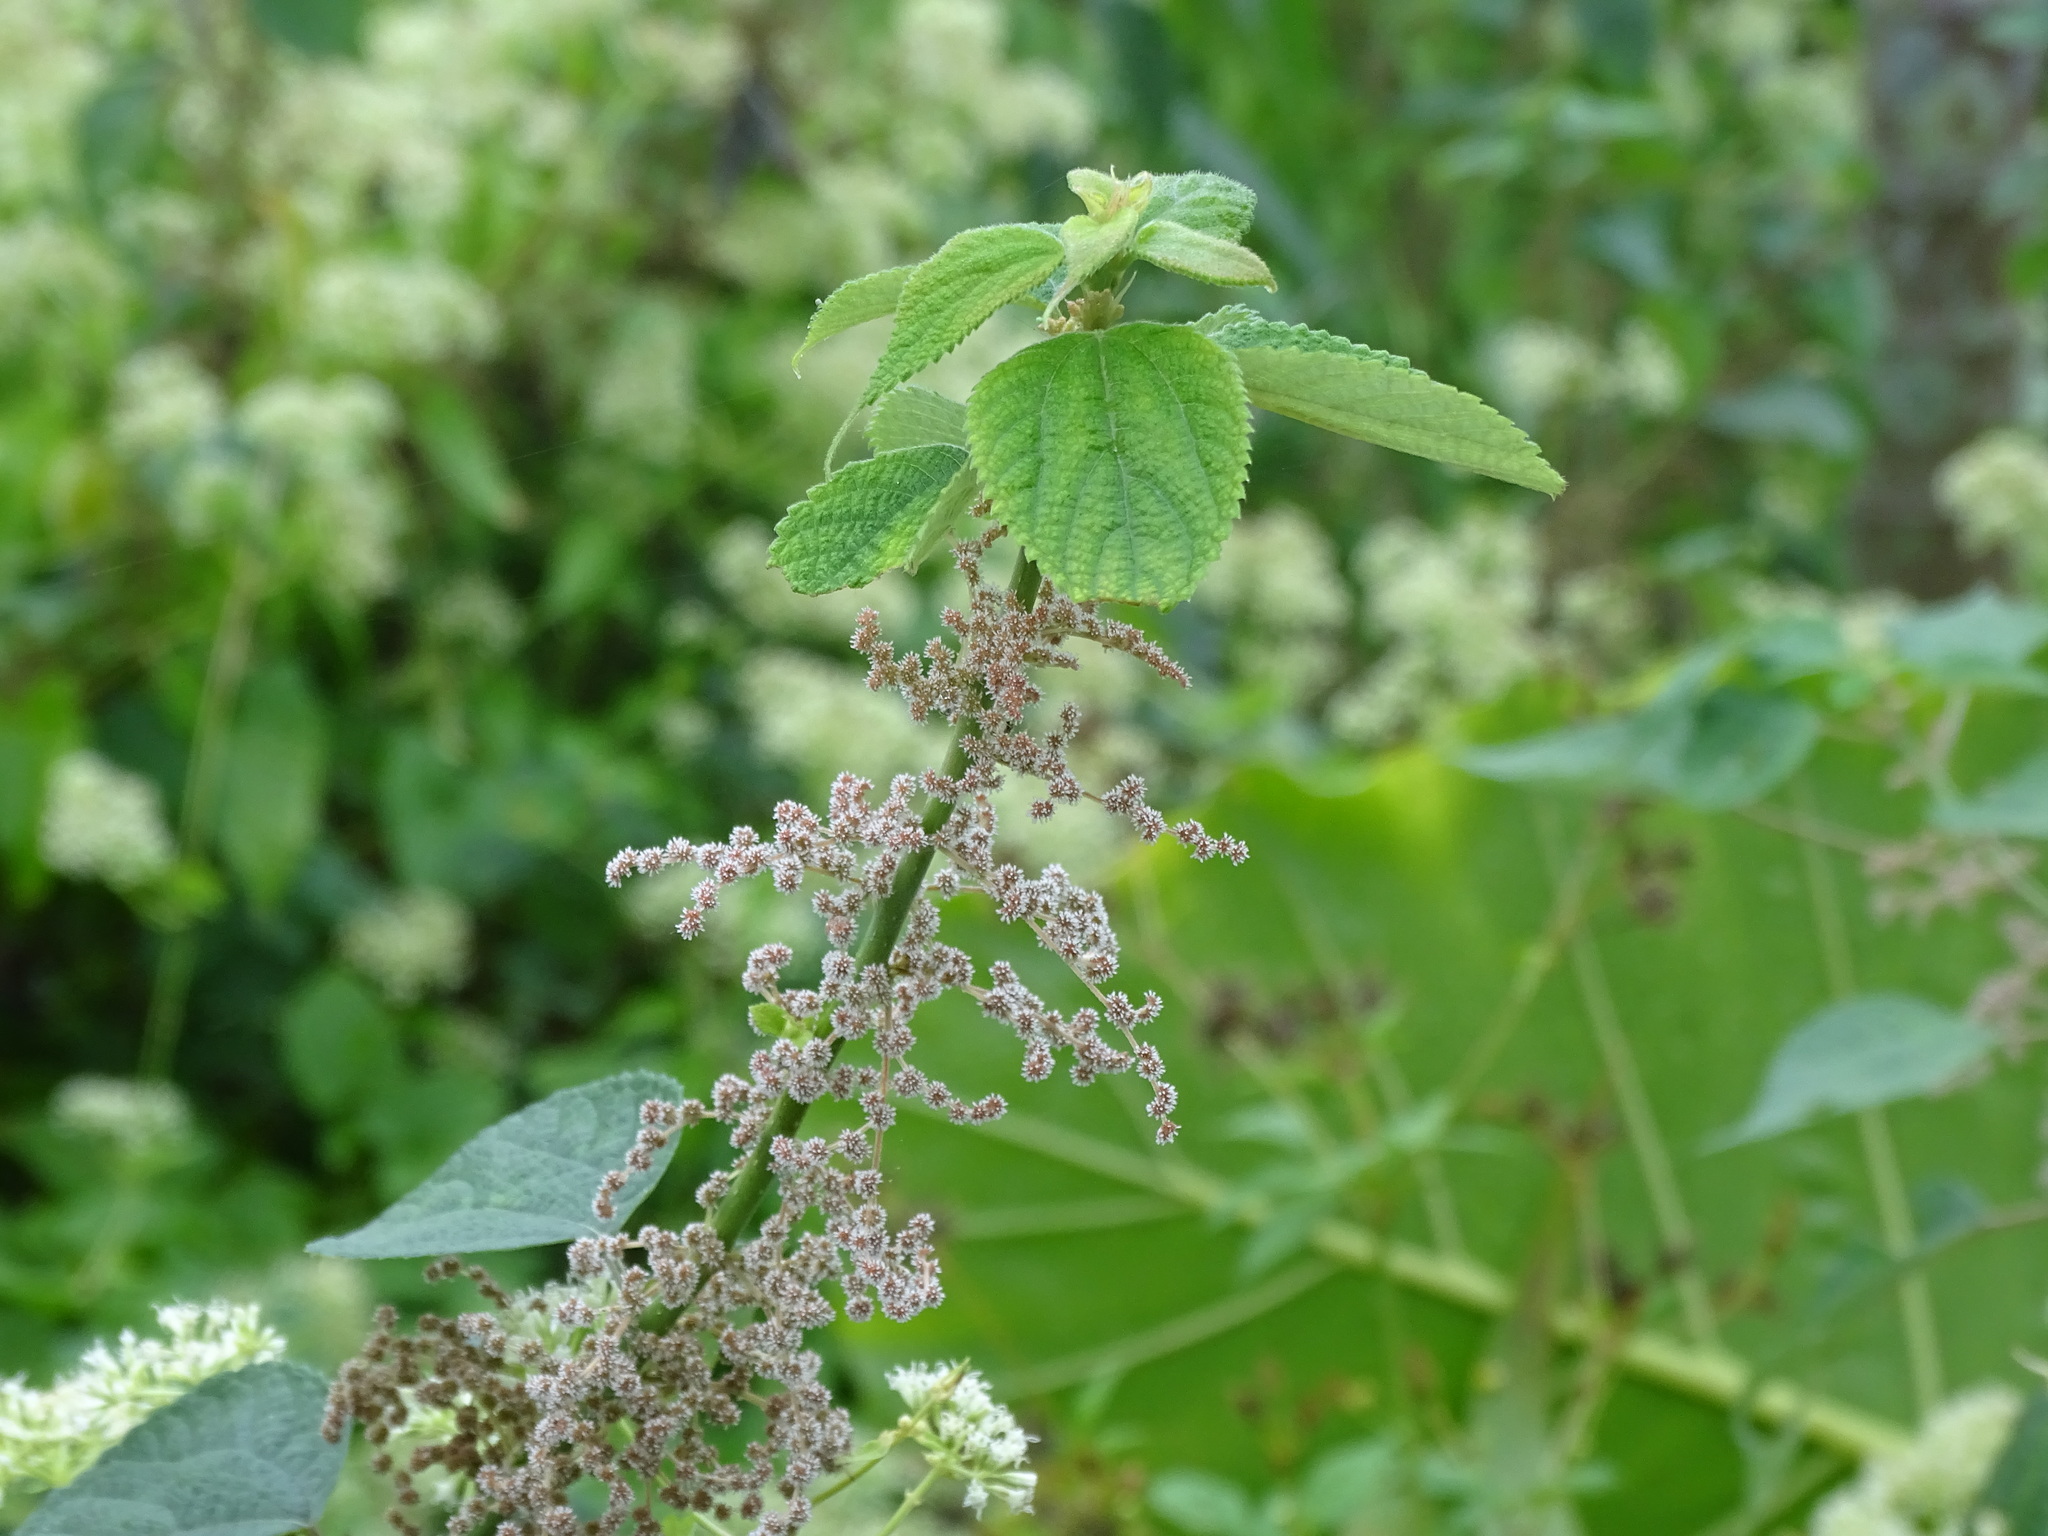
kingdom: Plantae
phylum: Tracheophyta
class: Magnoliopsida
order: Rosales
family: Urticaceae
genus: Boehmeria
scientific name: Boehmeria nivea
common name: Ramie chinese grass
